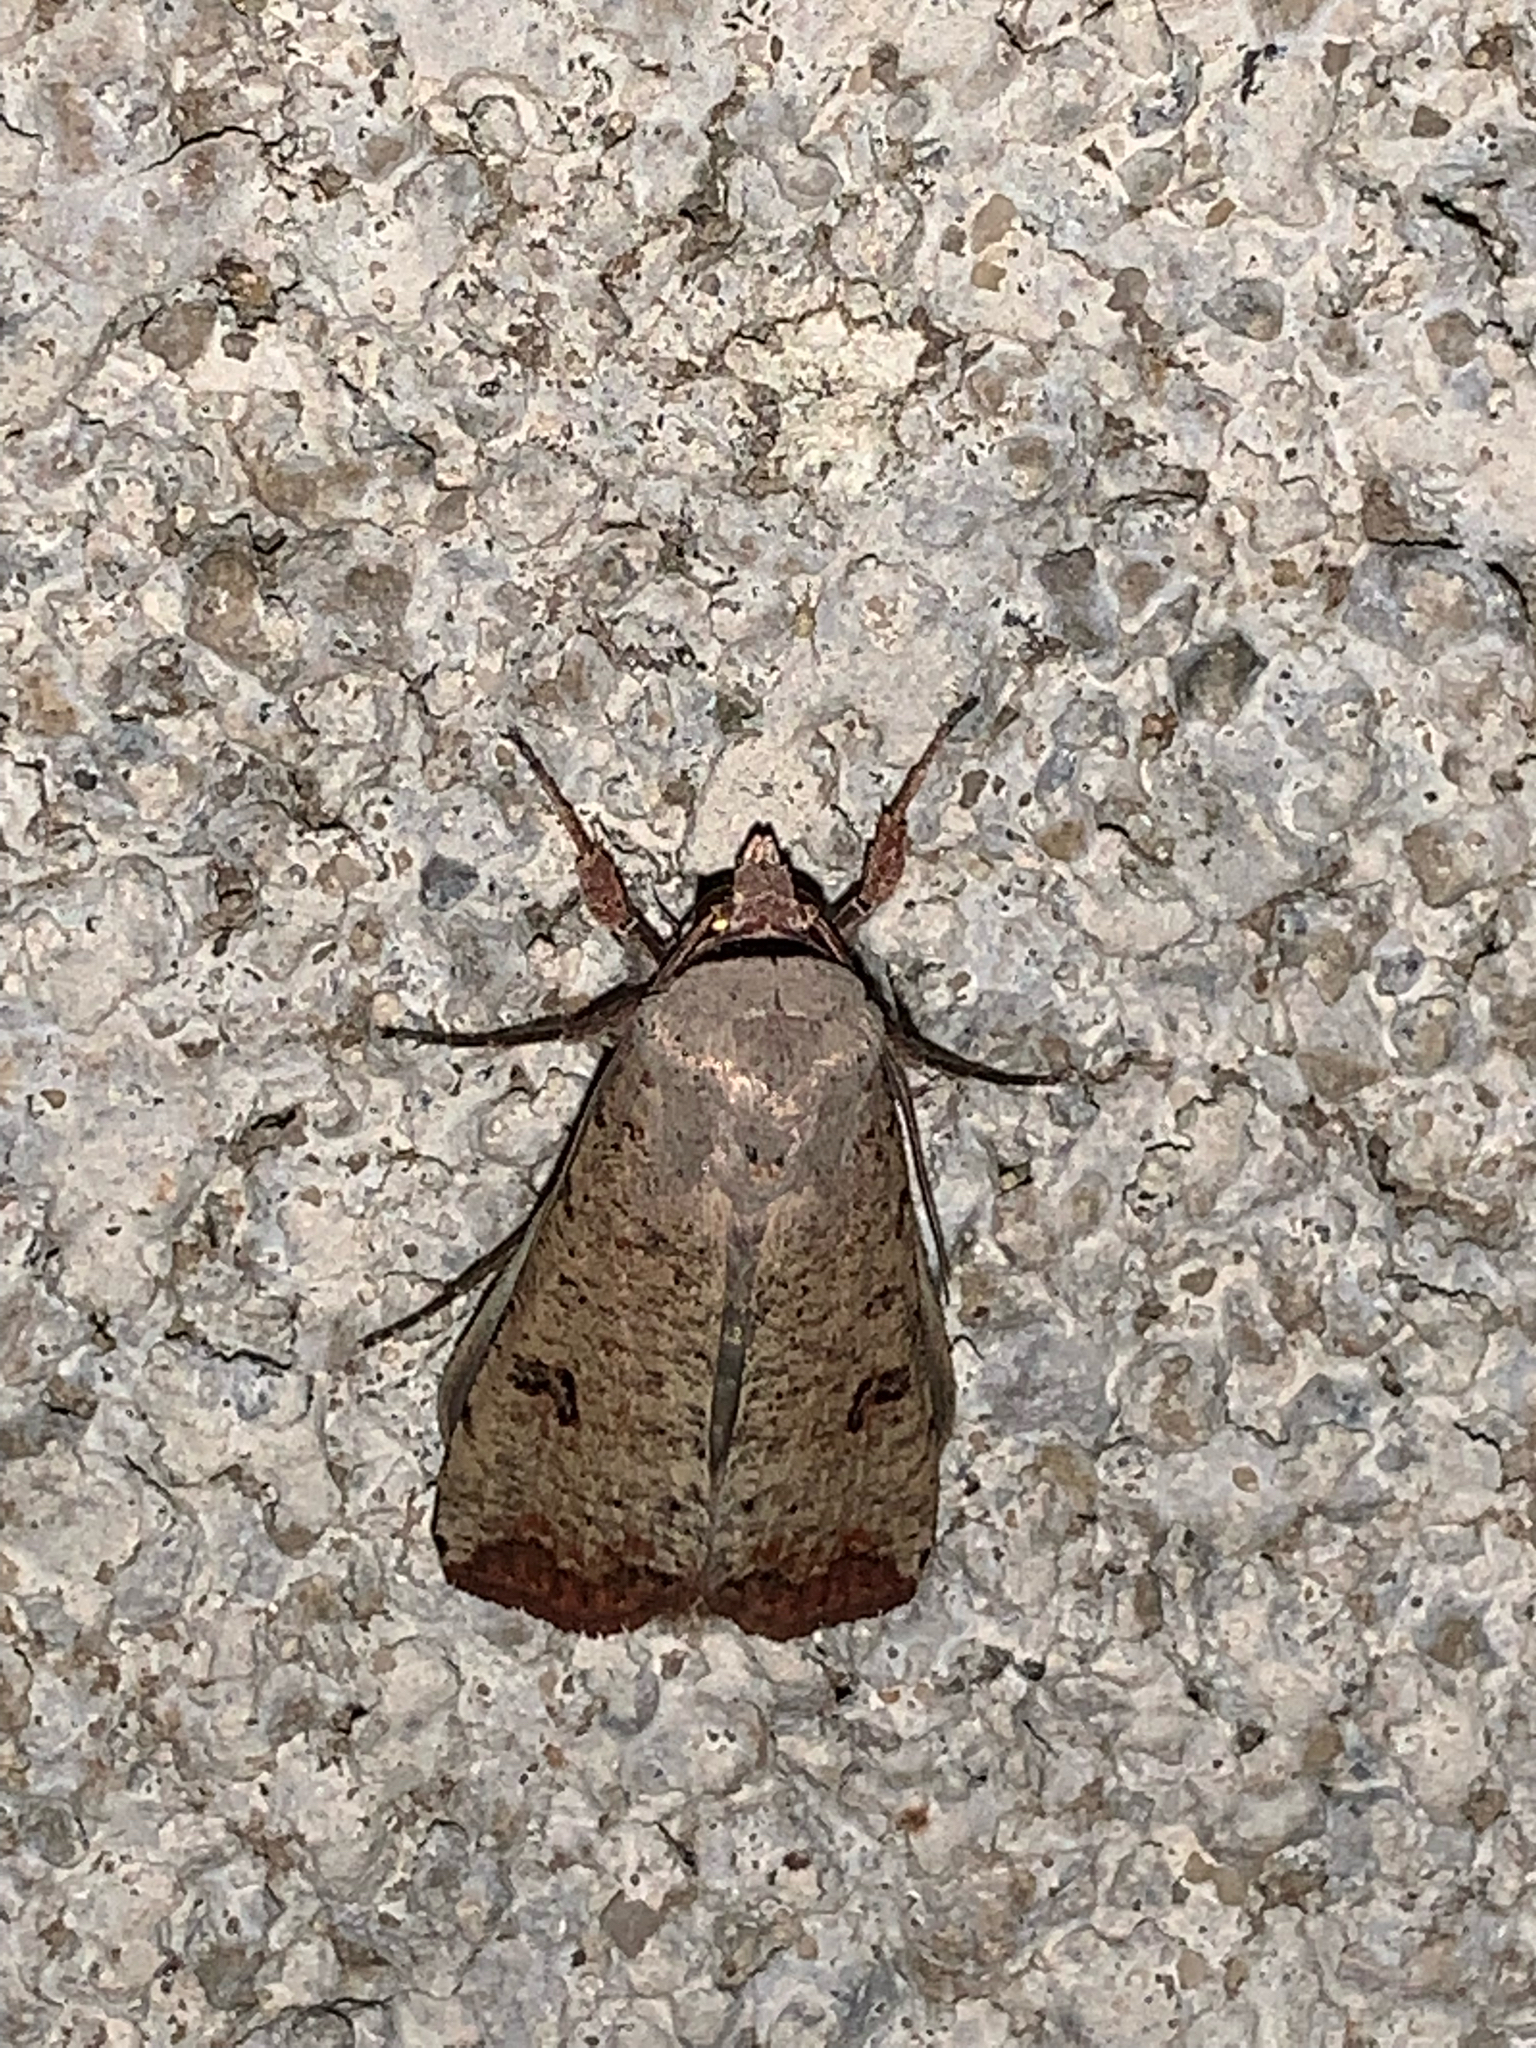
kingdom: Animalia
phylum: Arthropoda
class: Insecta
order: Lepidoptera
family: Noctuidae
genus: Anicla
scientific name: Anicla infecta
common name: Green cutworm
